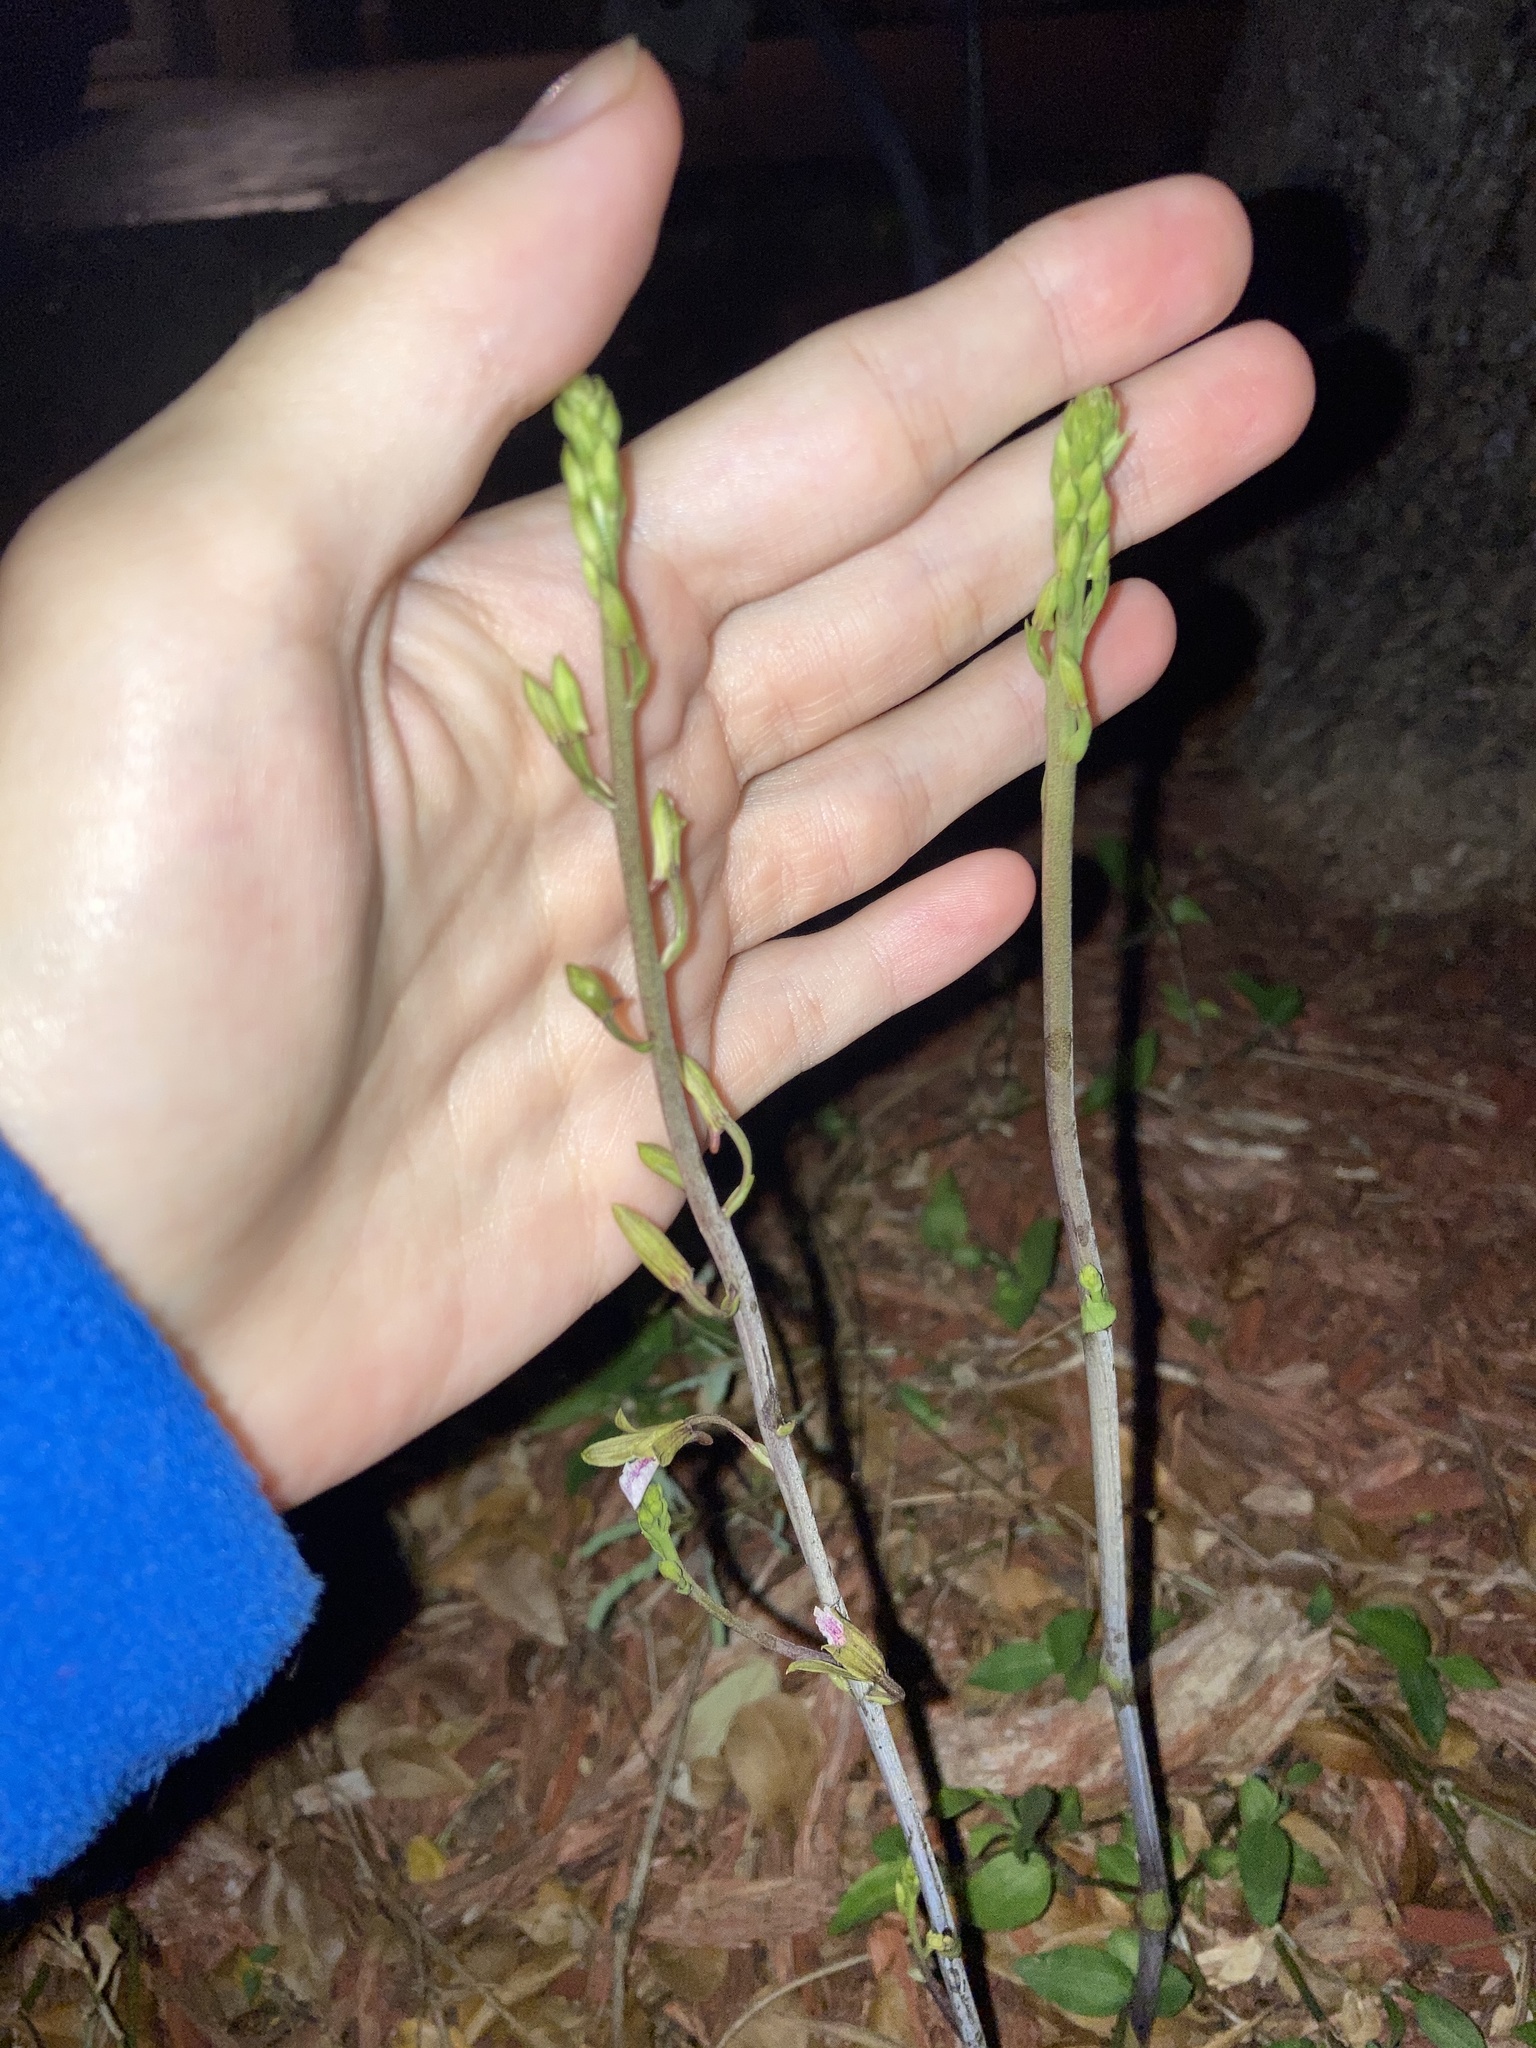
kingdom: Plantae
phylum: Tracheophyta
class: Liliopsida
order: Asparagales
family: Orchidaceae
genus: Eulophia
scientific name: Eulophia graminea
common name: Orchid
